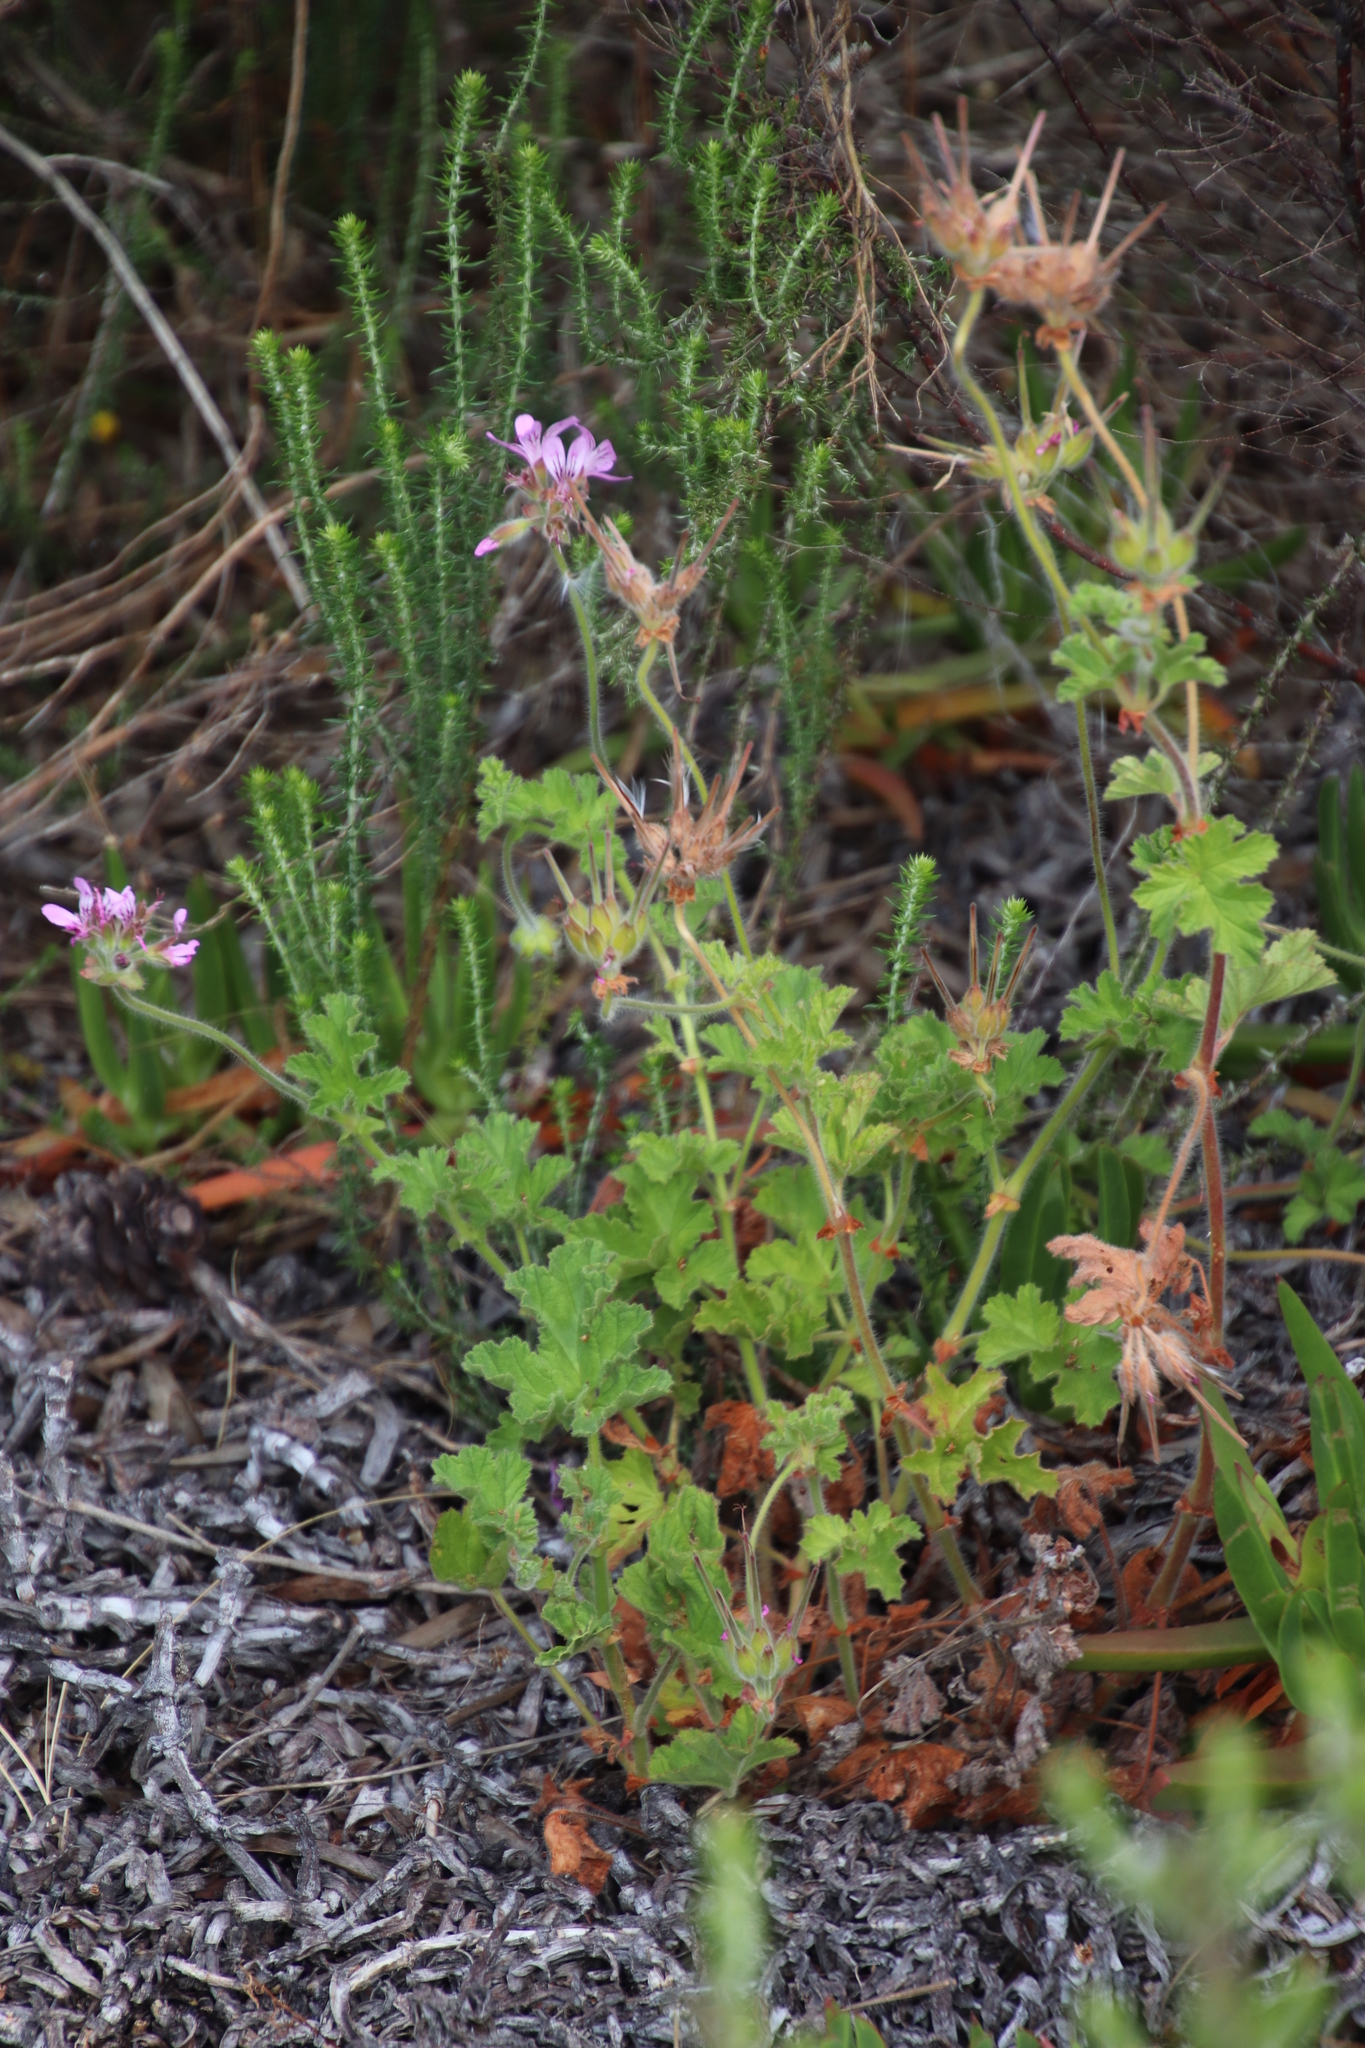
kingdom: Plantae
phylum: Tracheophyta
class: Magnoliopsida
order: Geraniales
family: Geraniaceae
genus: Pelargonium
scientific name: Pelargonium capitatum
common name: Rose scented geranium
